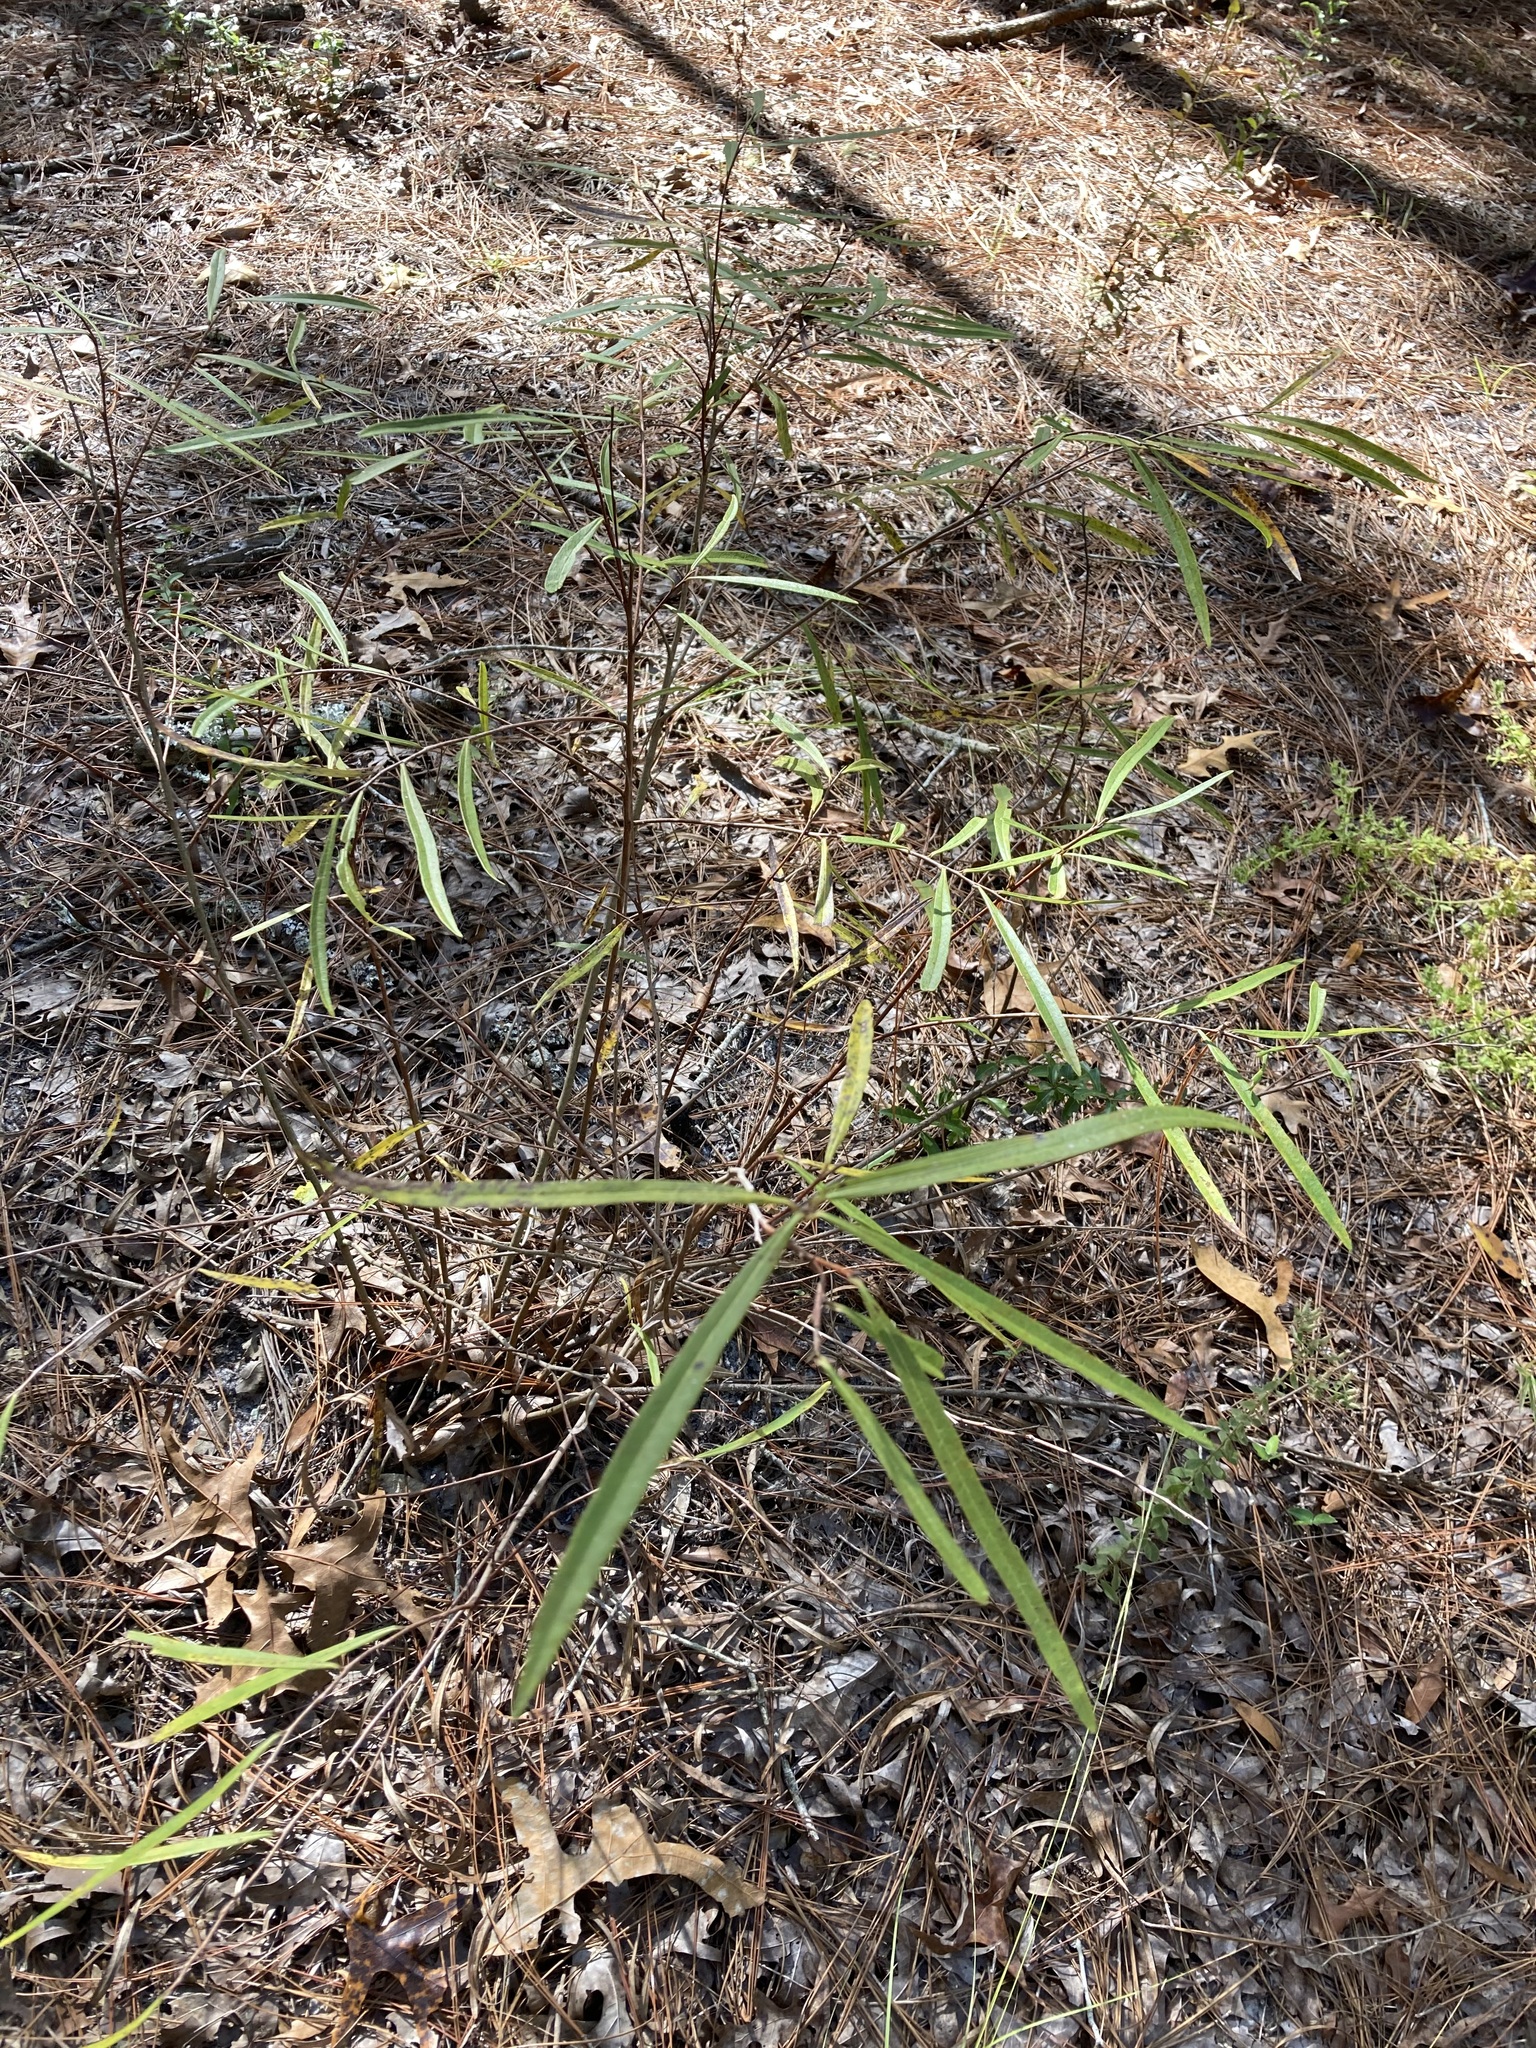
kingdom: Plantae
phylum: Tracheophyta
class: Magnoliopsida
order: Magnoliales
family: Annonaceae
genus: Asimina
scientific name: Asimina longifolia
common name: Polecatbush
